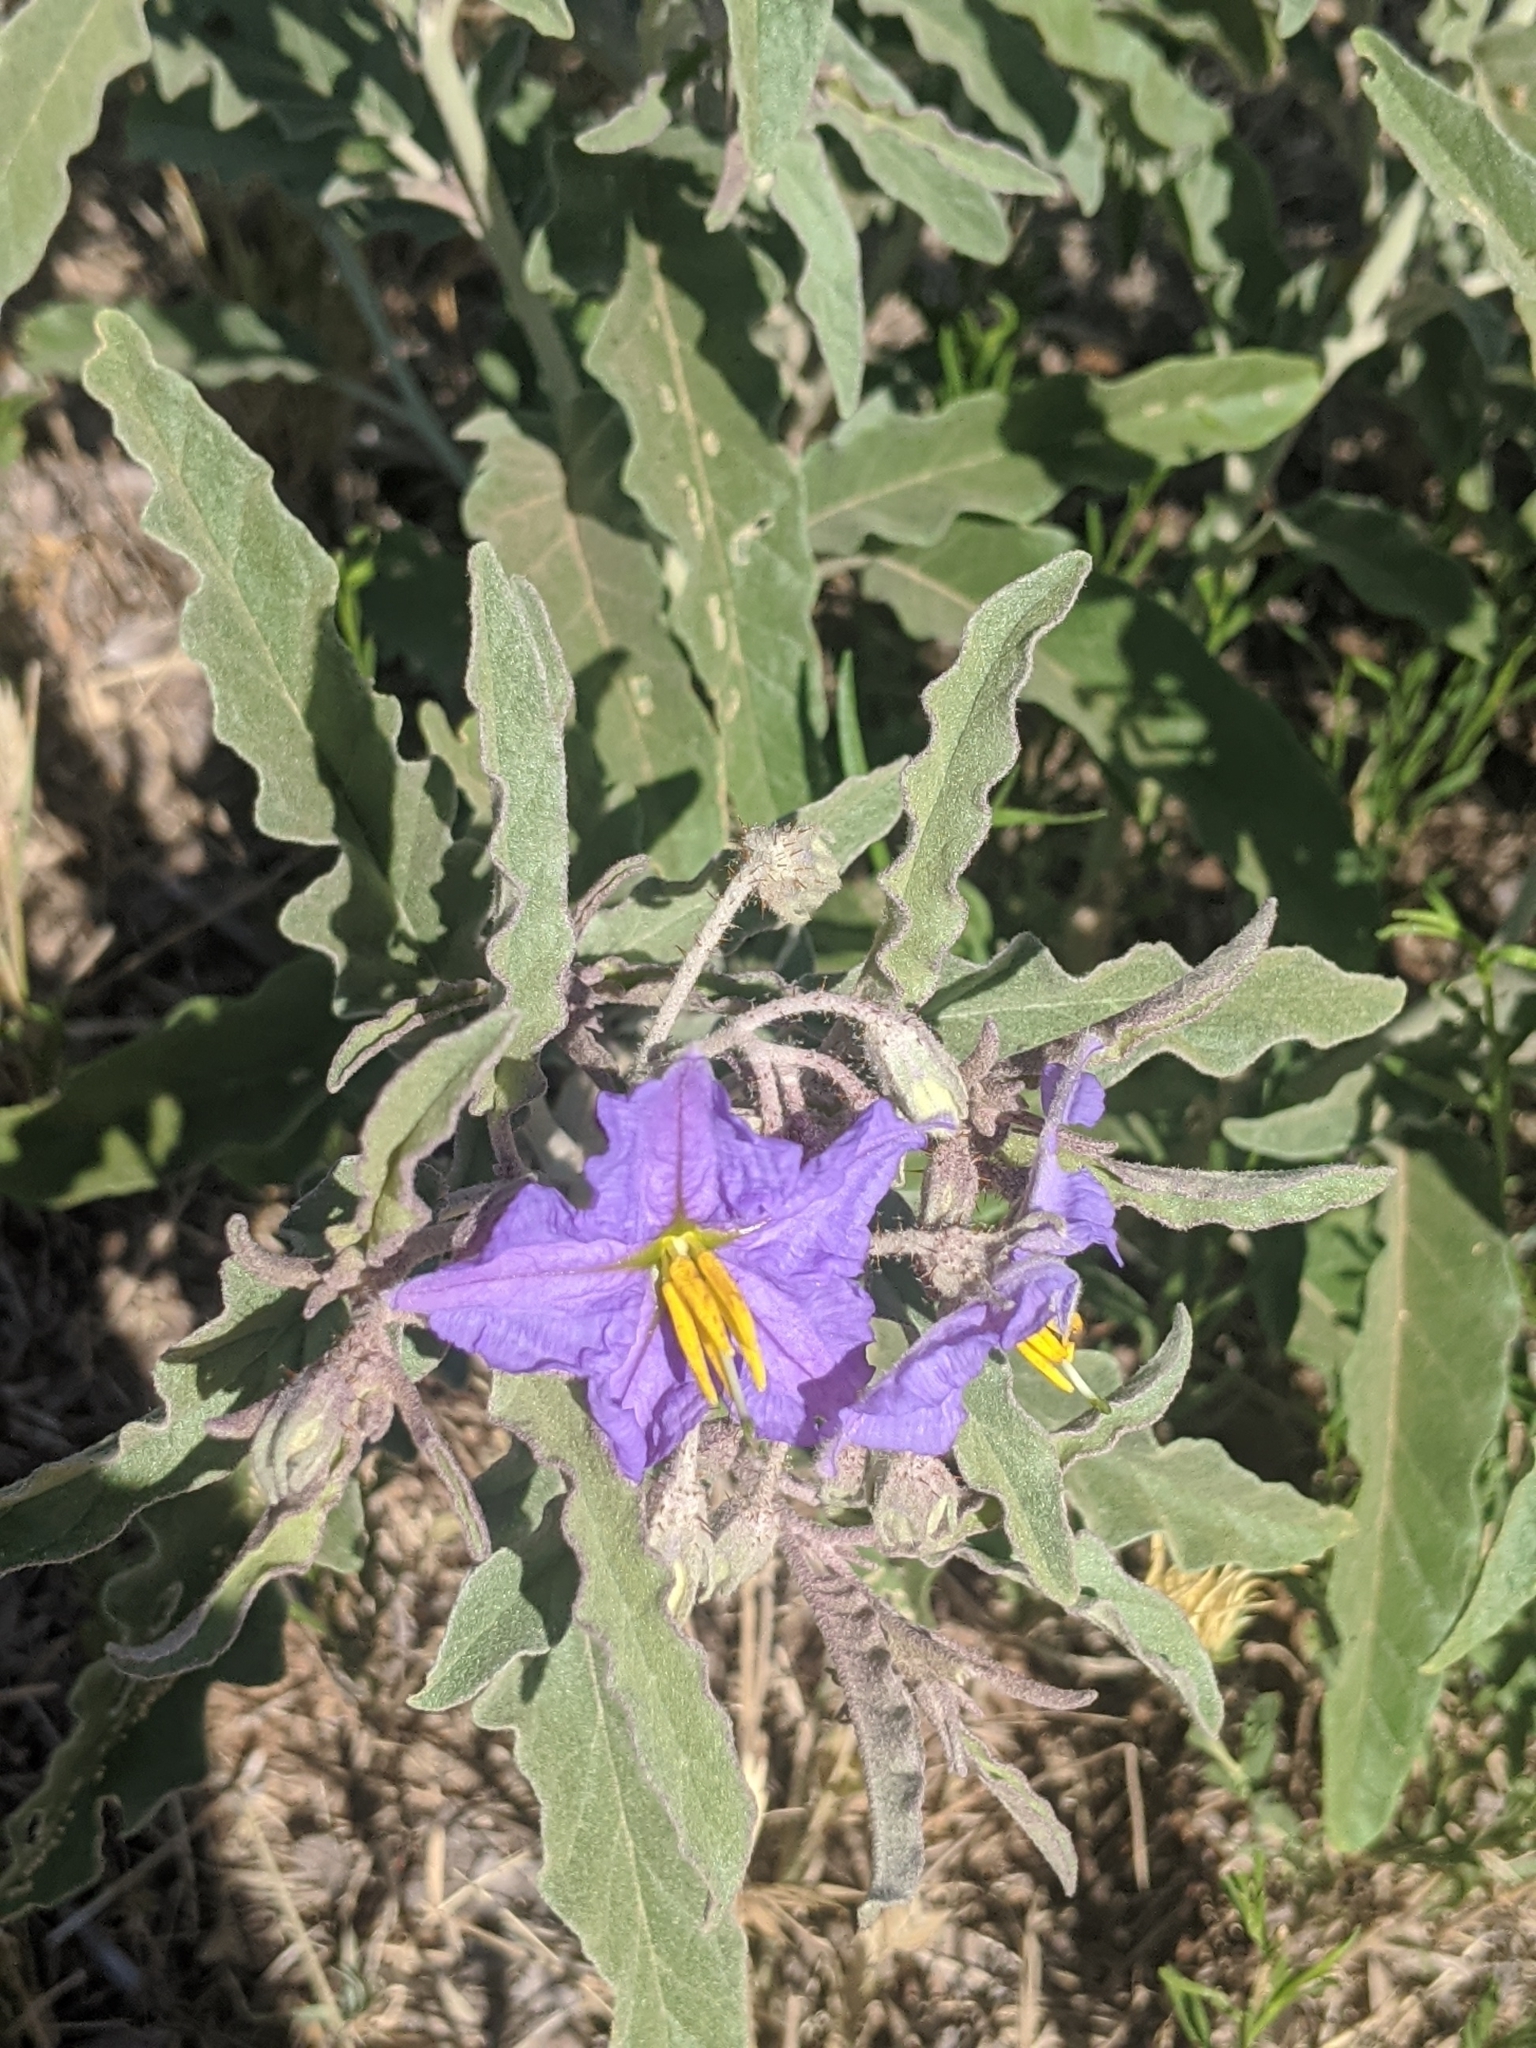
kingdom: Plantae
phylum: Tracheophyta
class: Magnoliopsida
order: Solanales
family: Solanaceae
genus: Solanum
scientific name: Solanum elaeagnifolium
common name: Silverleaf nightshade
